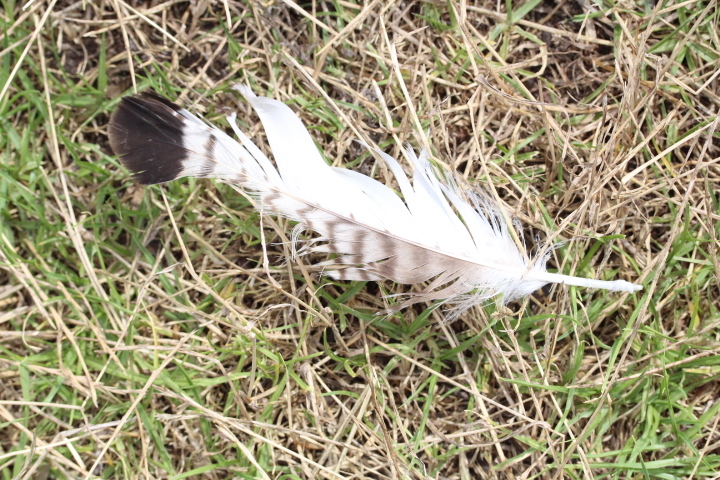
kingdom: Animalia
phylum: Chordata
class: Aves
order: Accipitriformes
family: Accipitridae
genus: Buteo
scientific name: Buteo rufofuscus
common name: Jackal buzzard
